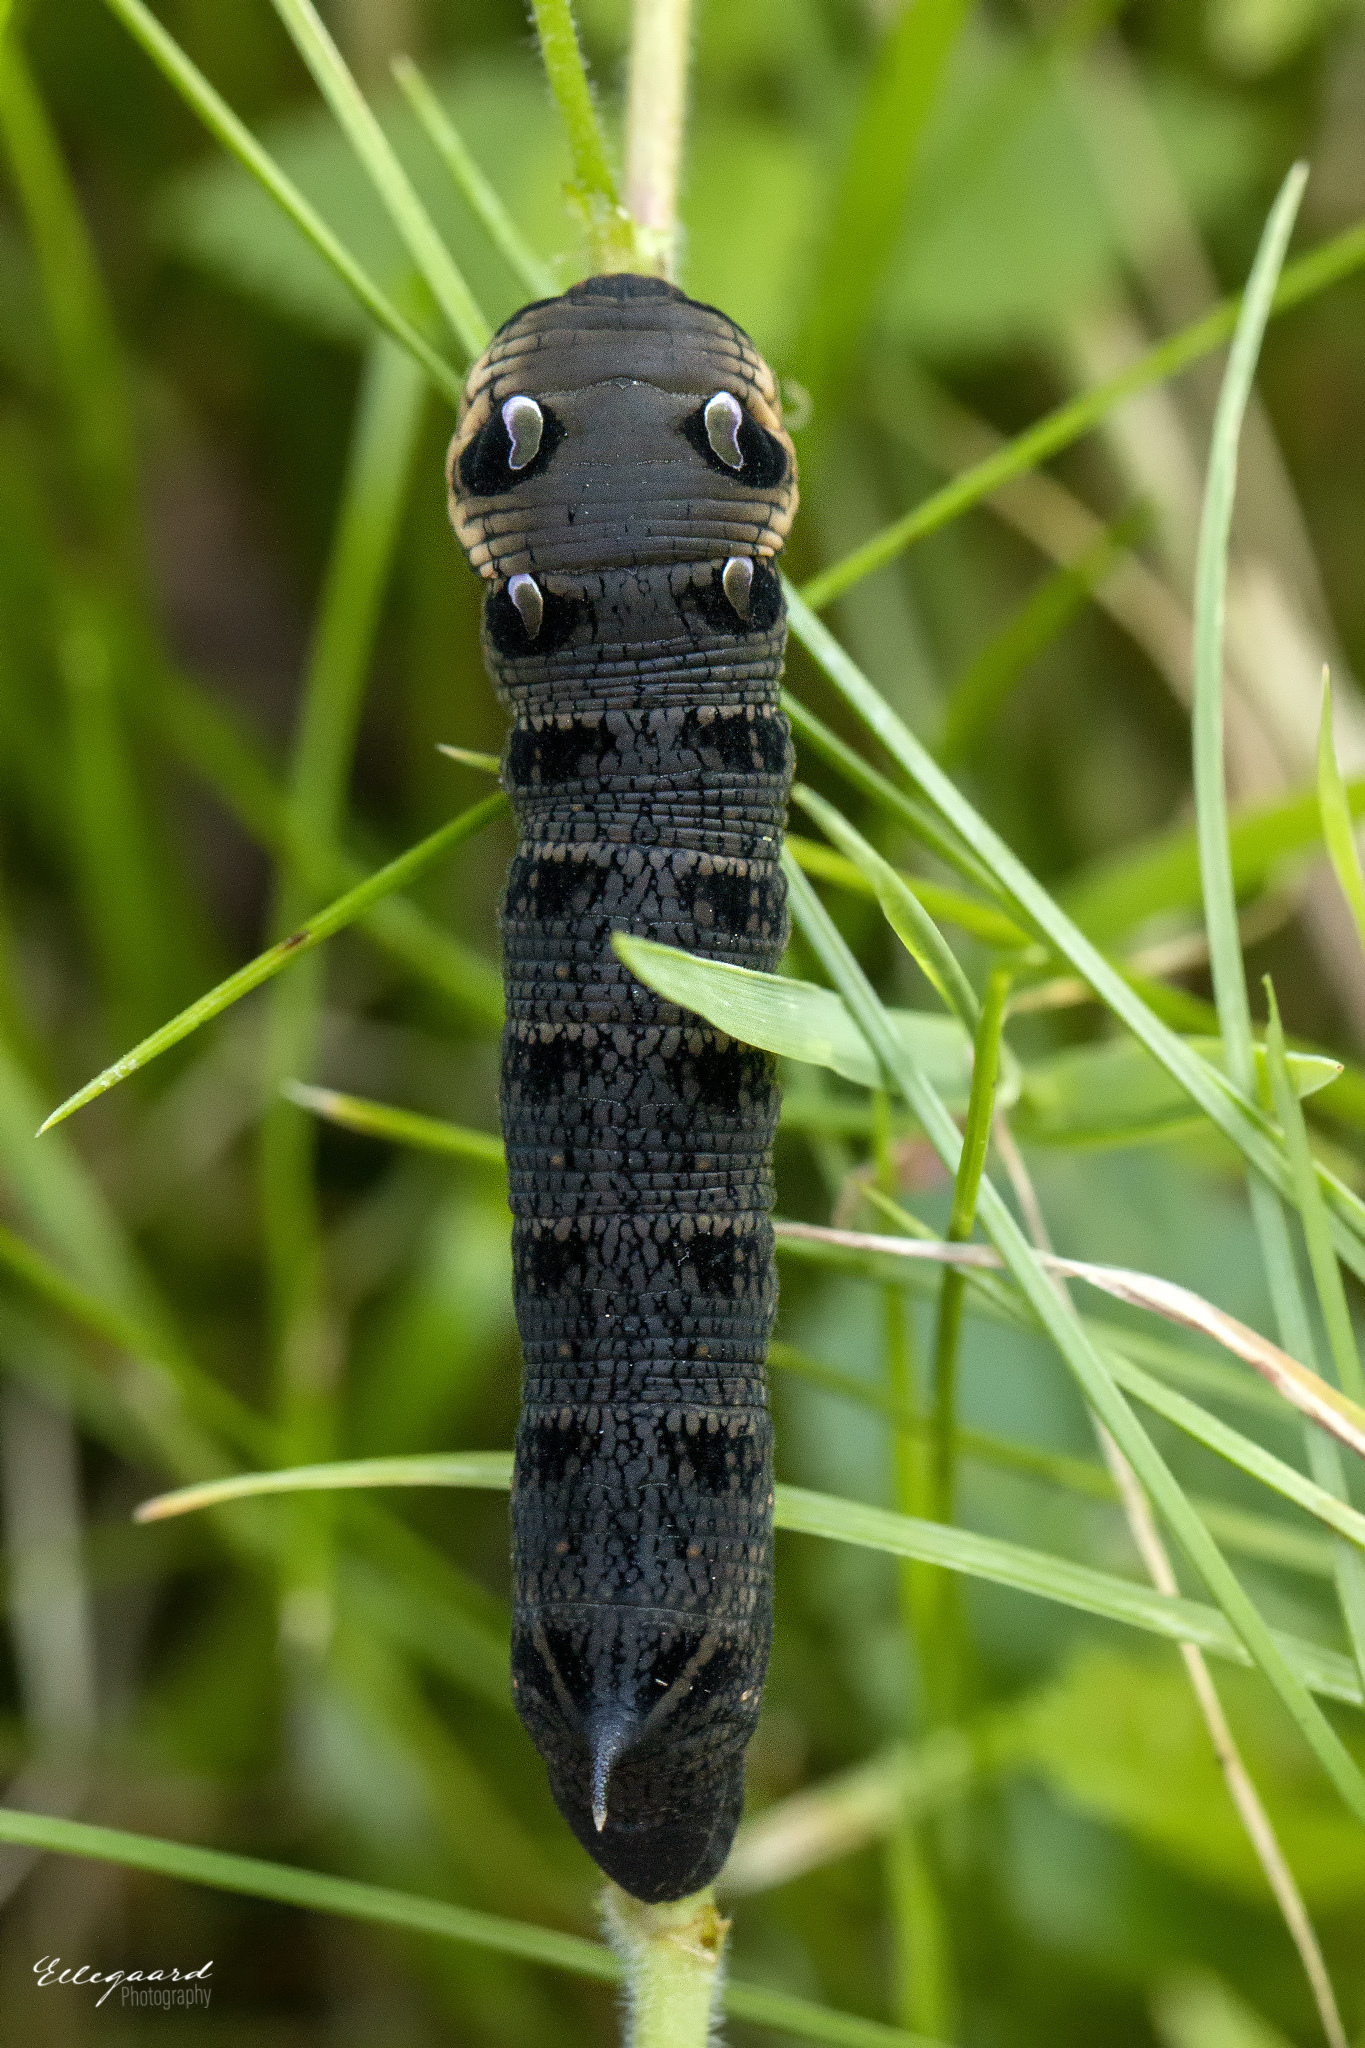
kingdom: Animalia
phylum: Arthropoda
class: Insecta
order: Lepidoptera
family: Sphingidae
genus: Deilephila
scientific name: Deilephila elpenor
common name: Elephant hawk-moth
